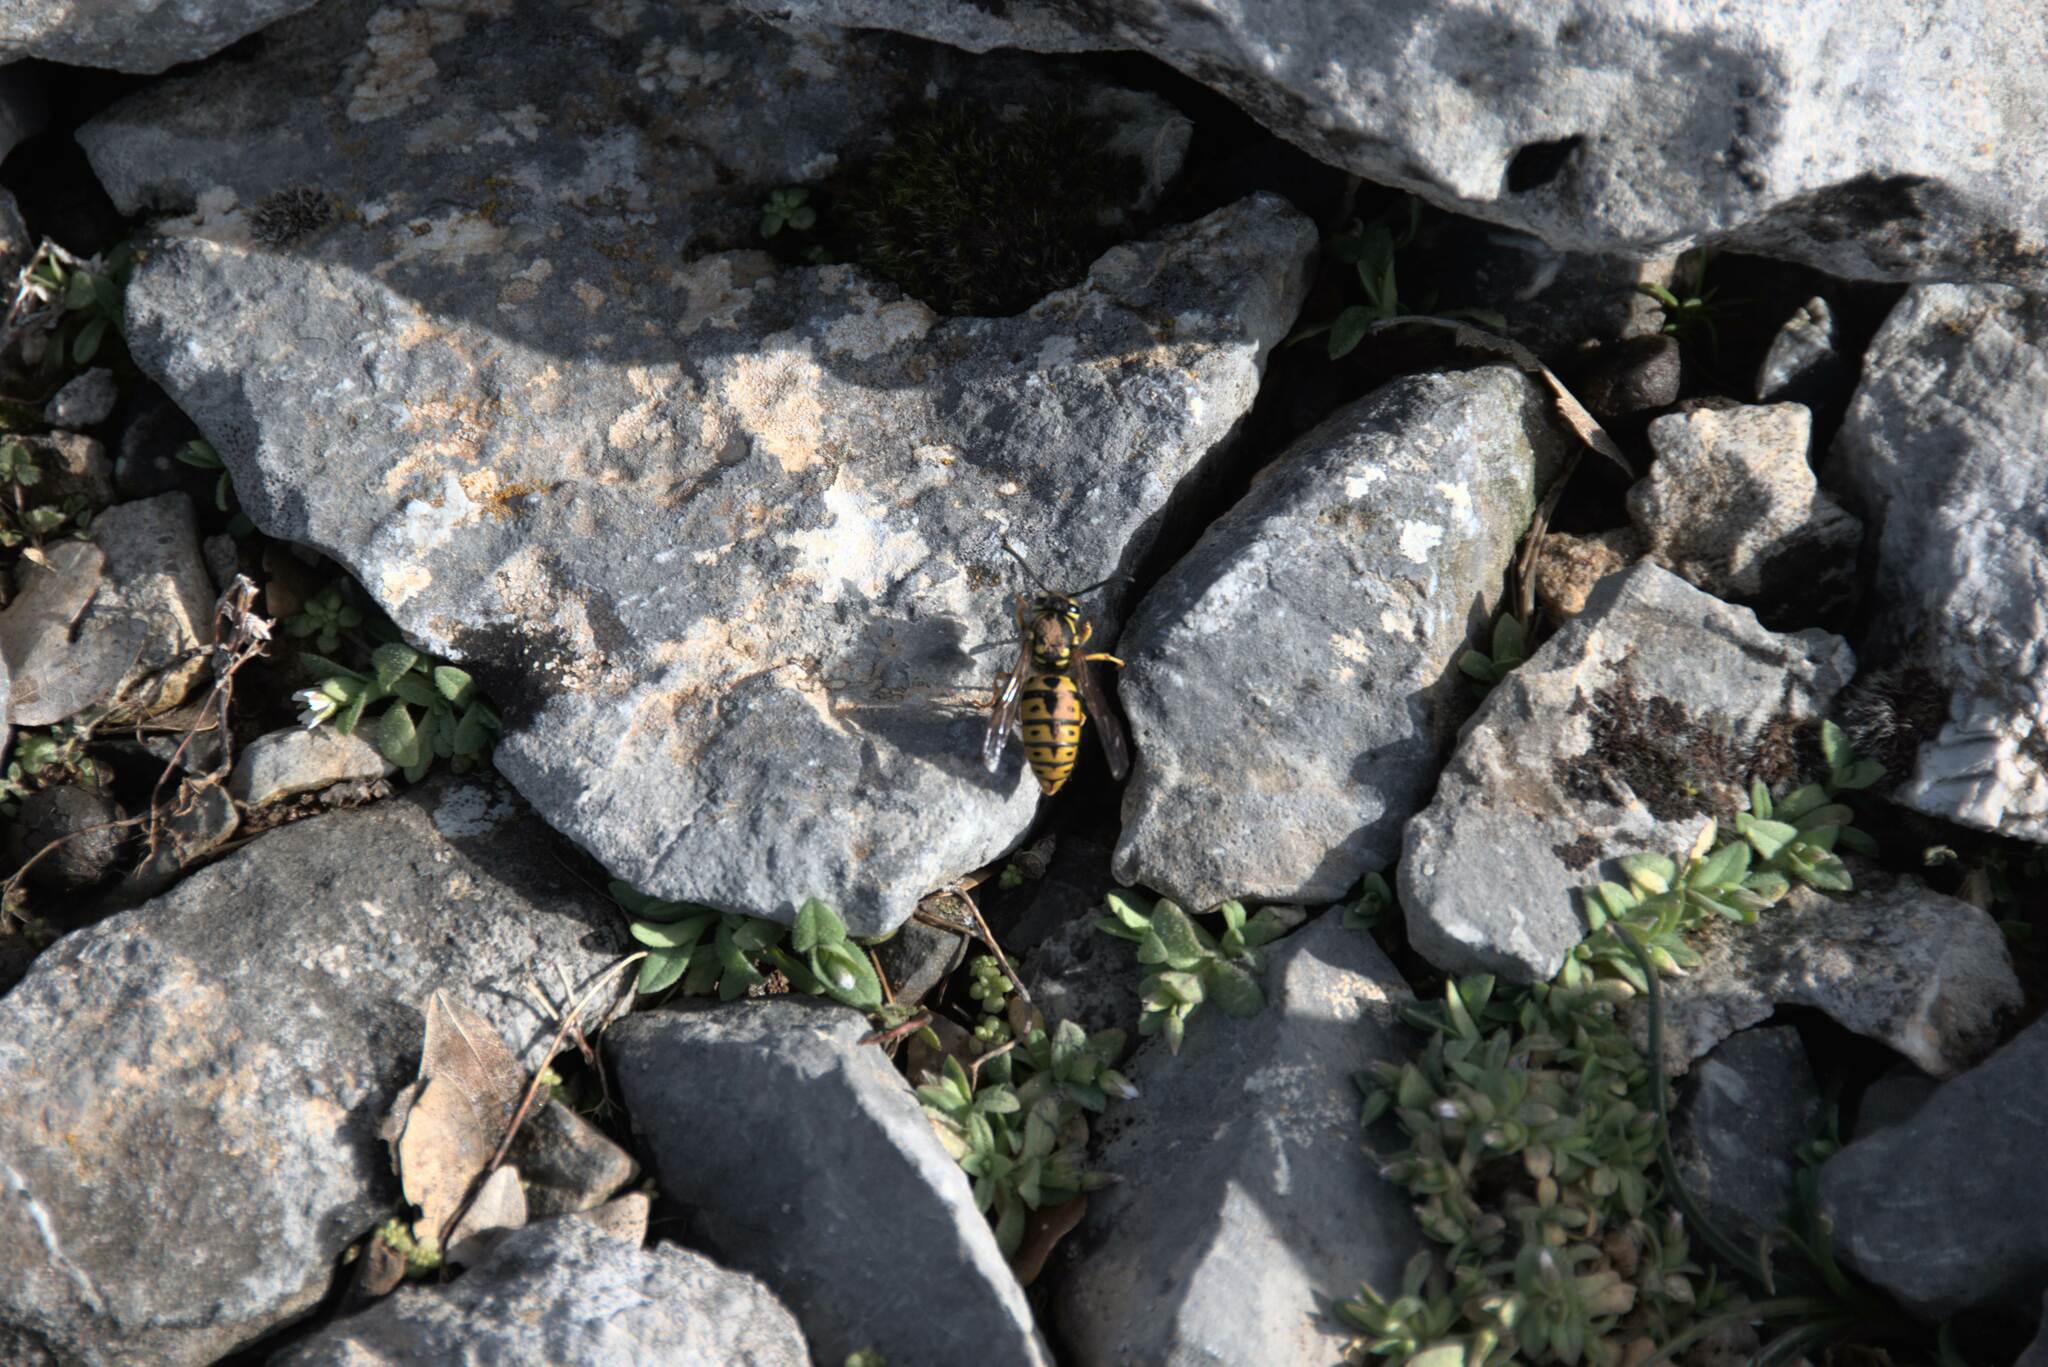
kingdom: Animalia
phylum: Arthropoda
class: Insecta
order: Hymenoptera
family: Vespidae
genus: Vespula
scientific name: Vespula germanica
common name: German wasp
